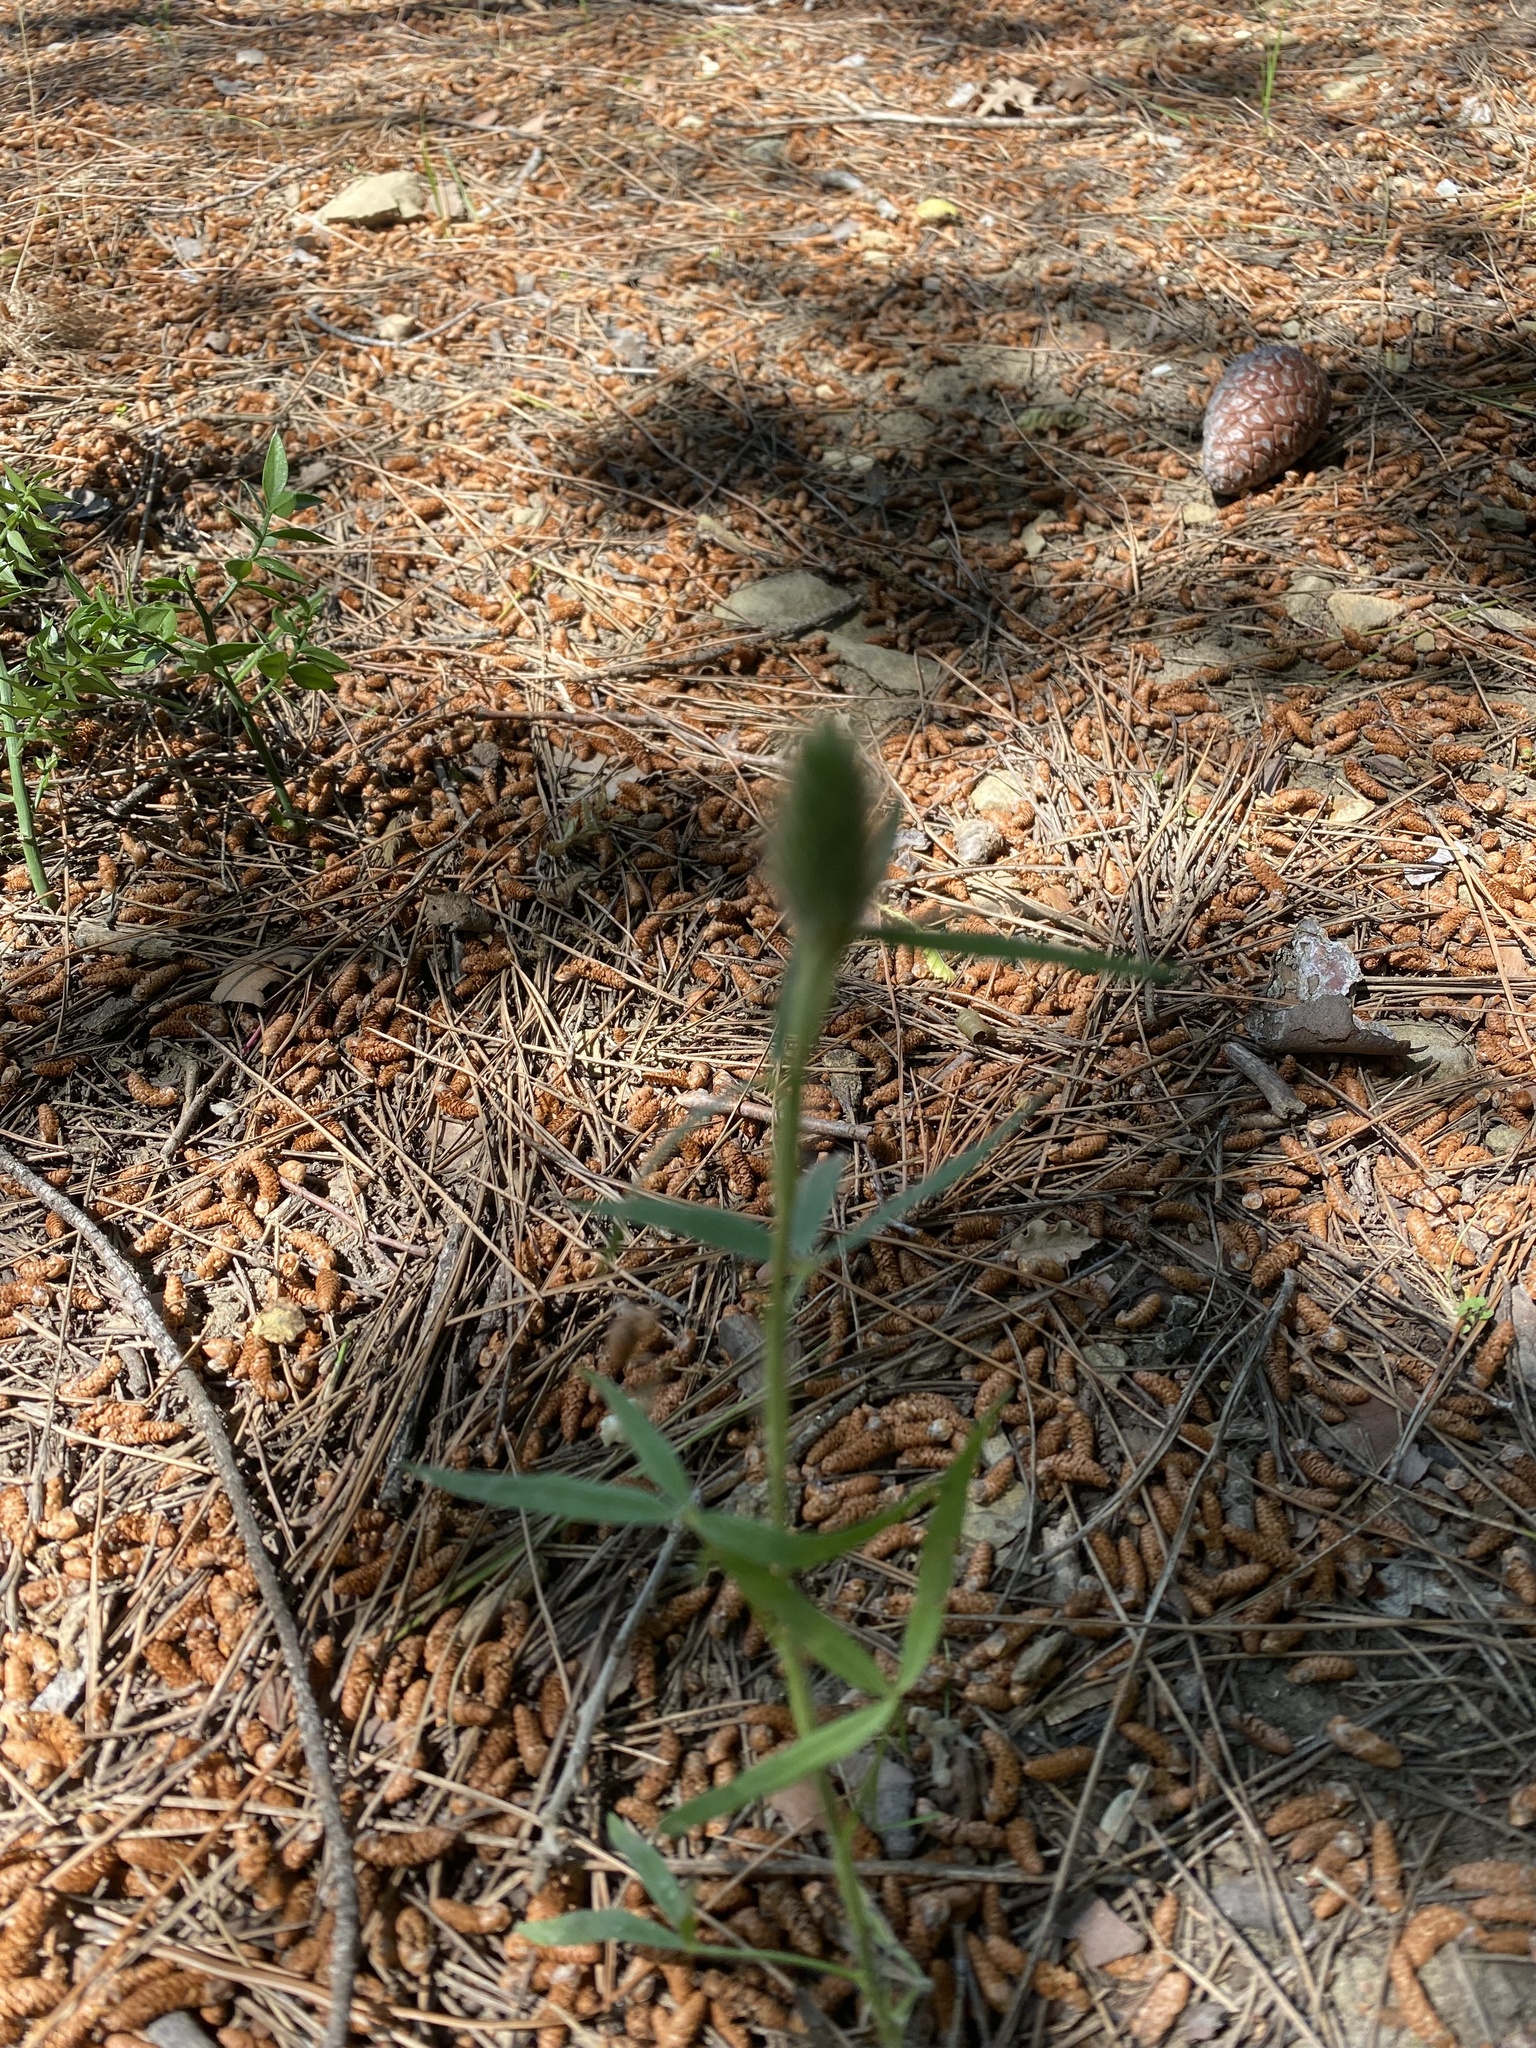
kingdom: Plantae
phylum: Tracheophyta
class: Magnoliopsida
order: Fabales
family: Fabaceae
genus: Trifolium
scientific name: Trifolium angustifolium
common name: Narrow clover
